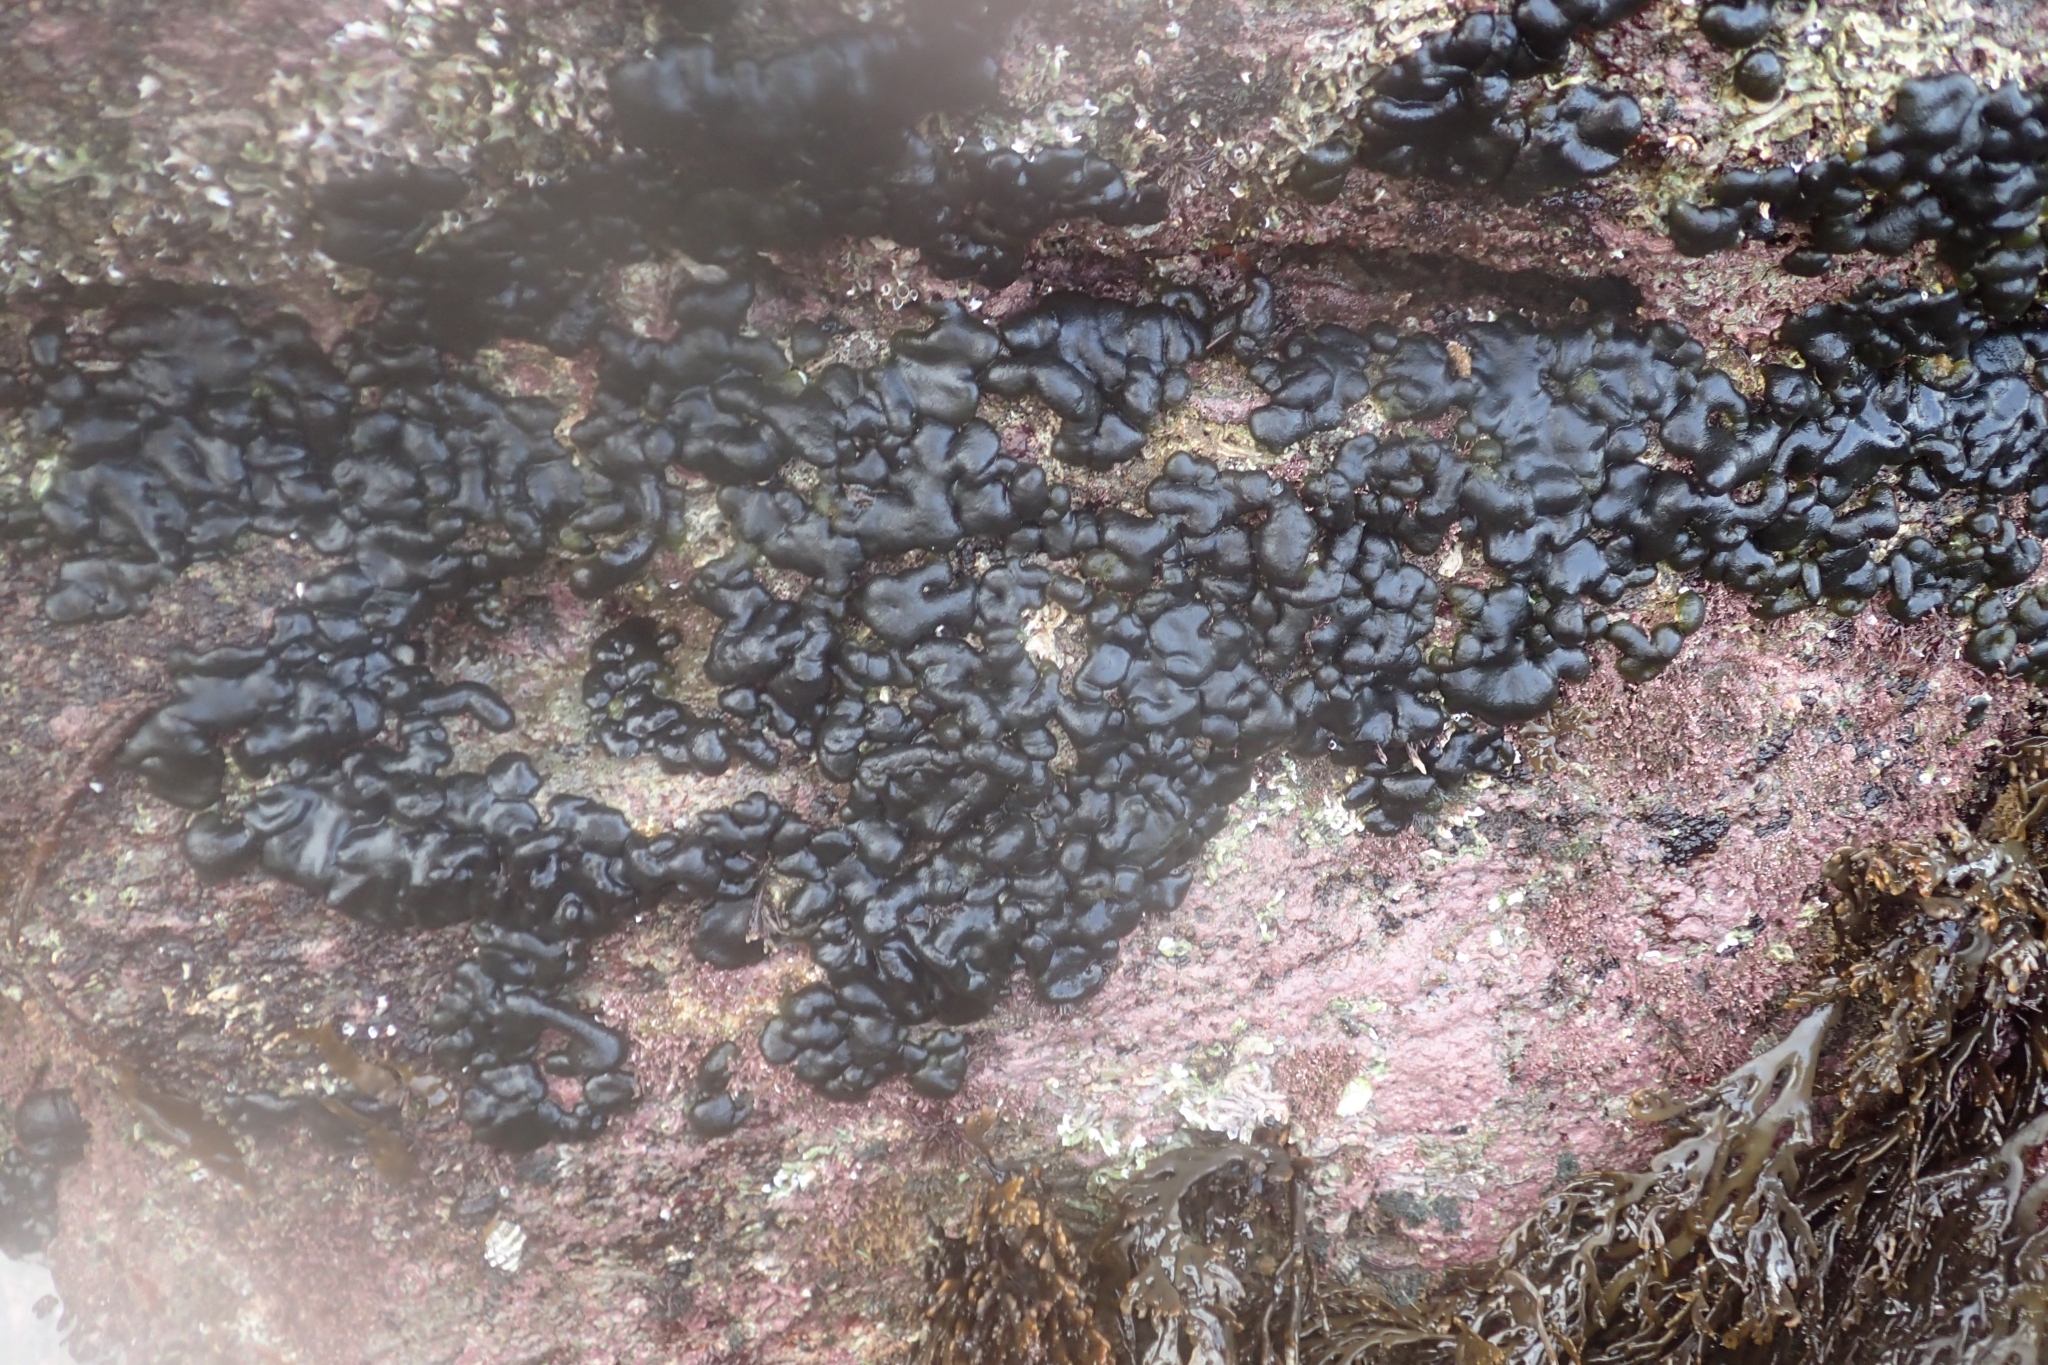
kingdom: Plantae
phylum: Chlorophyta
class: Ulvophyceae
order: Bryopsidales
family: Codiaceae
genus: Codium
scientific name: Codium convolutum
